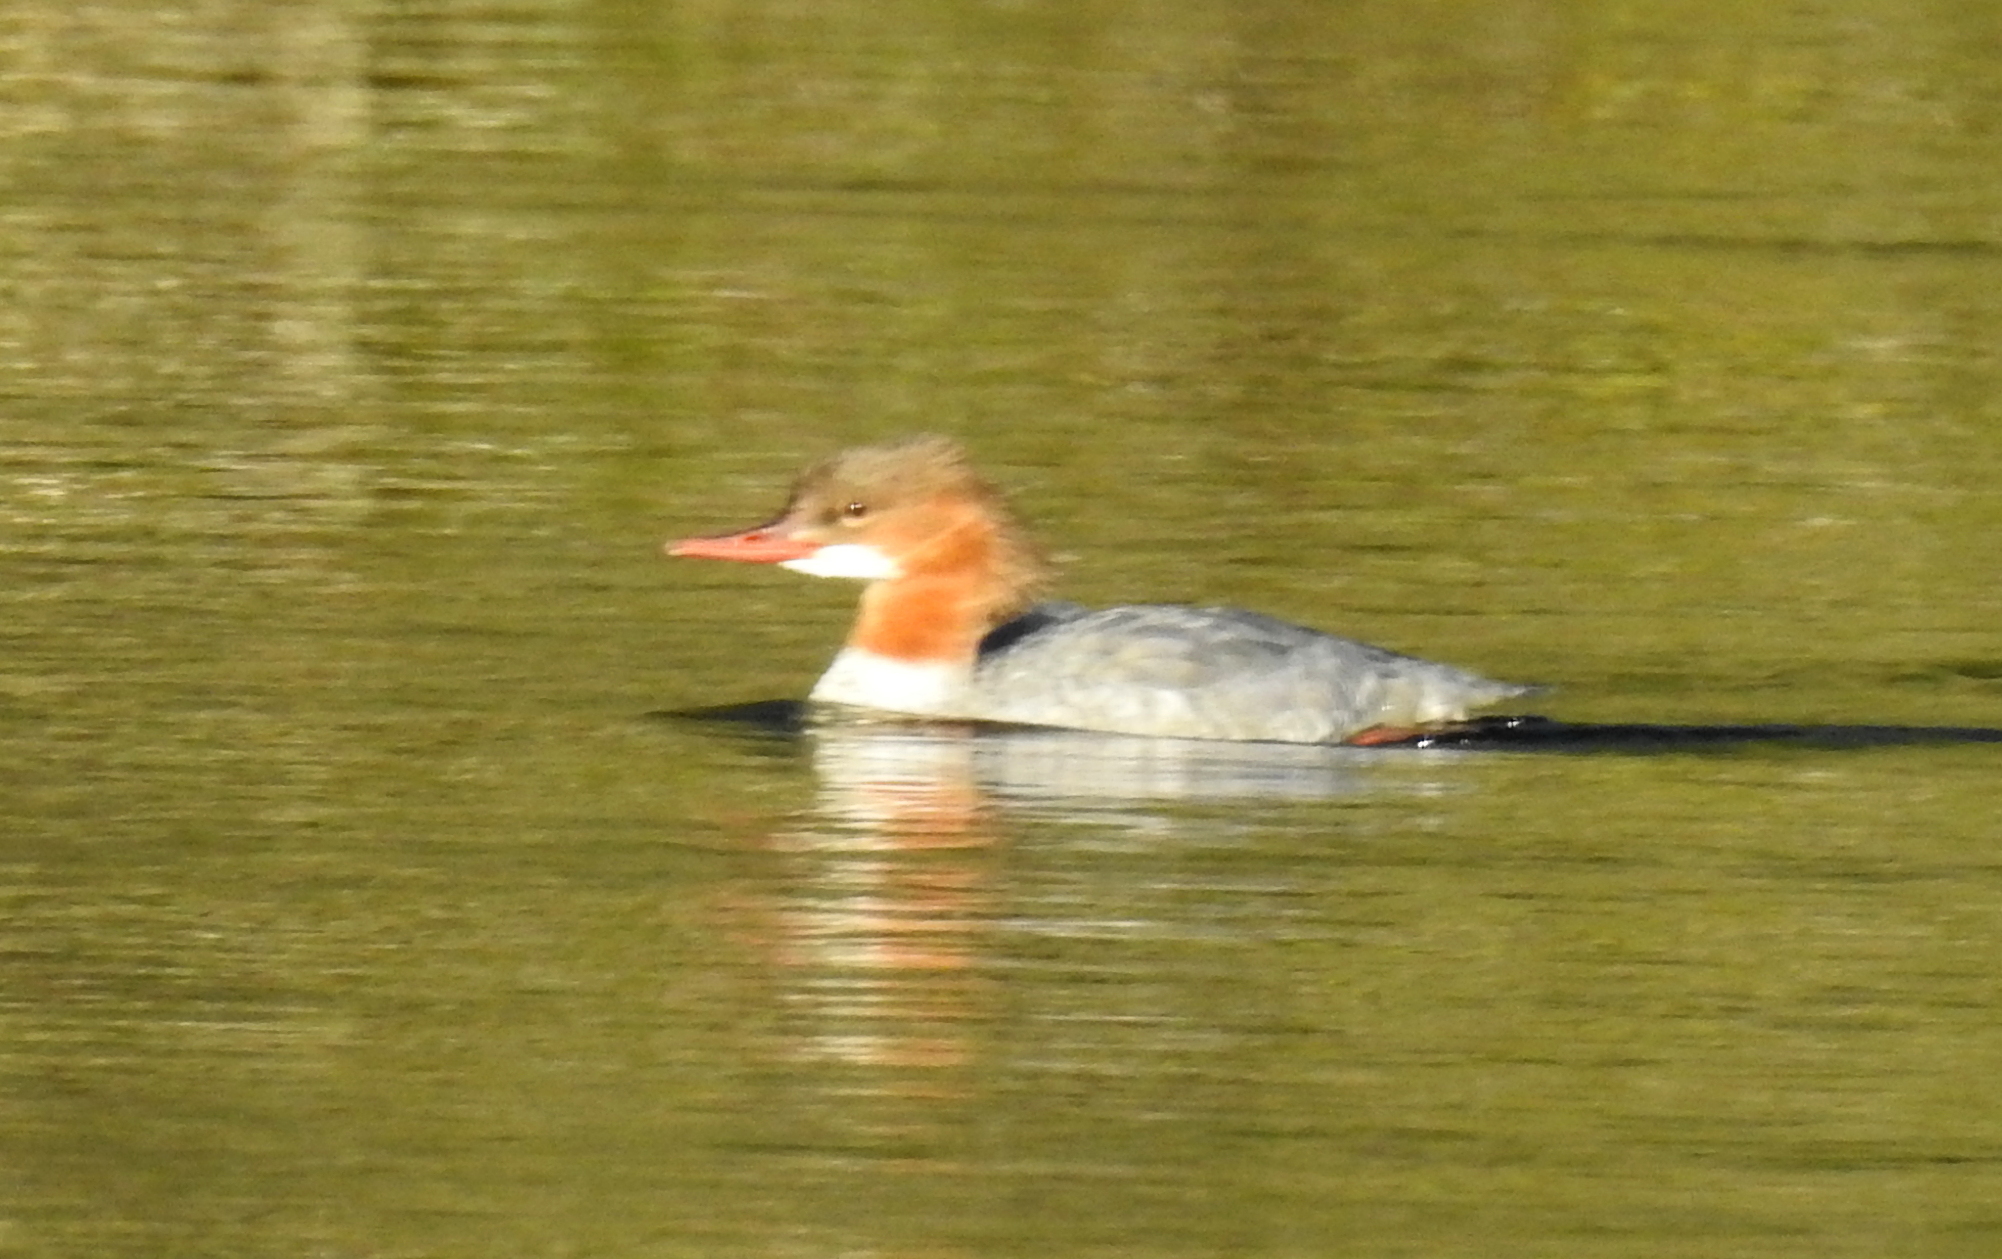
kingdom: Animalia
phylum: Chordata
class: Aves
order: Anseriformes
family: Anatidae
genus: Mergus
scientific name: Mergus merganser
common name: Common merganser
